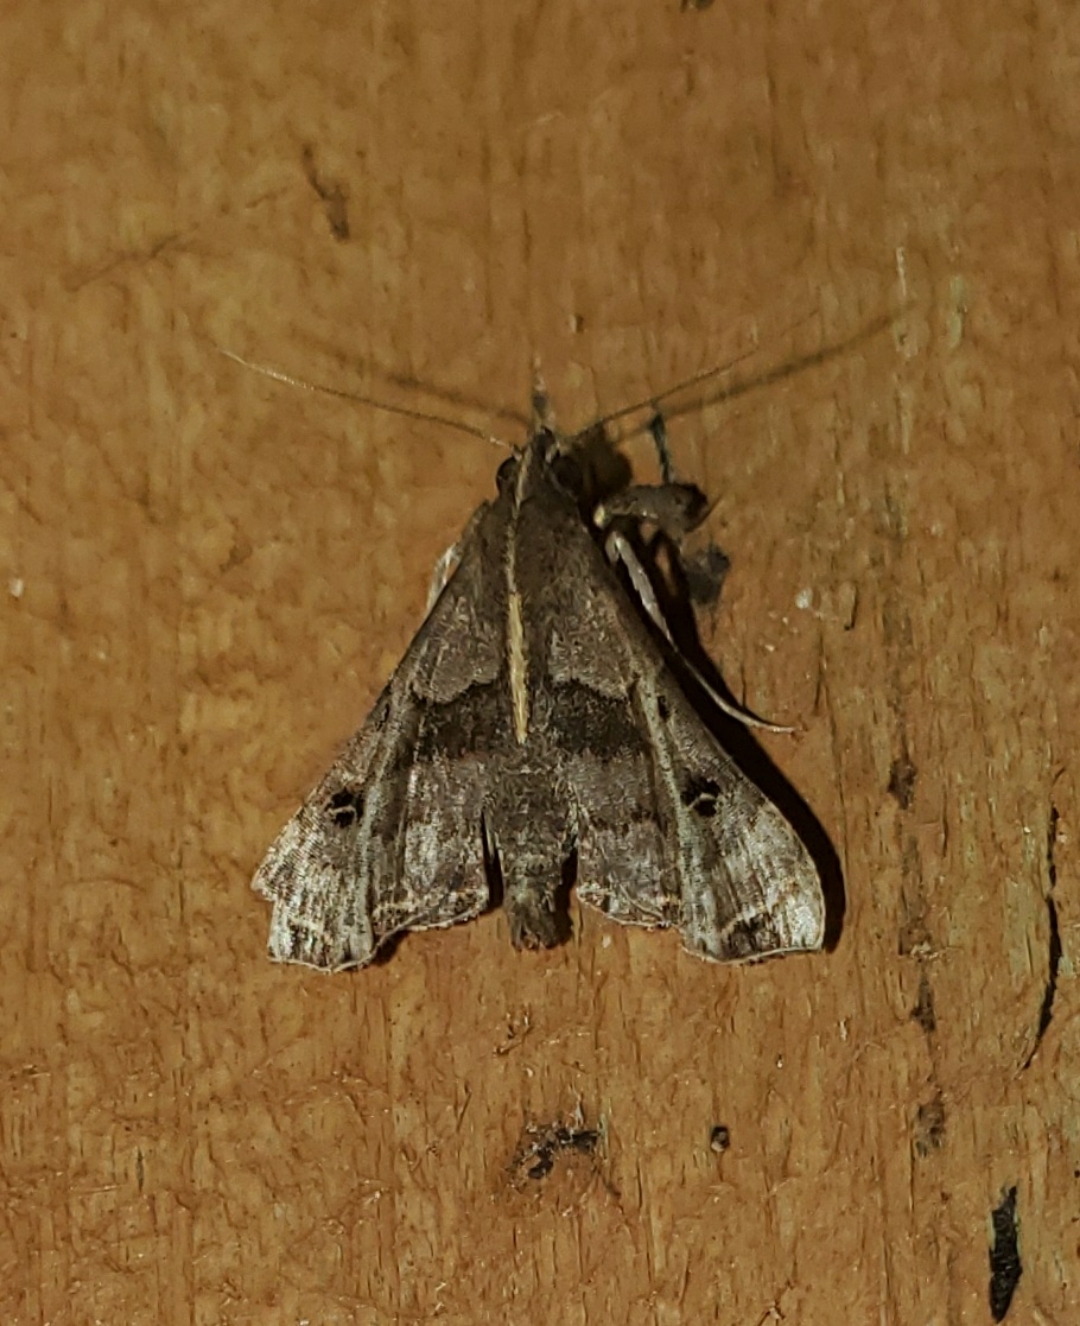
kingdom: Animalia
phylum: Arthropoda
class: Insecta
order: Lepidoptera
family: Erebidae
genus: Palthis
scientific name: Palthis asopialis
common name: Faint-spotted palthis moth
